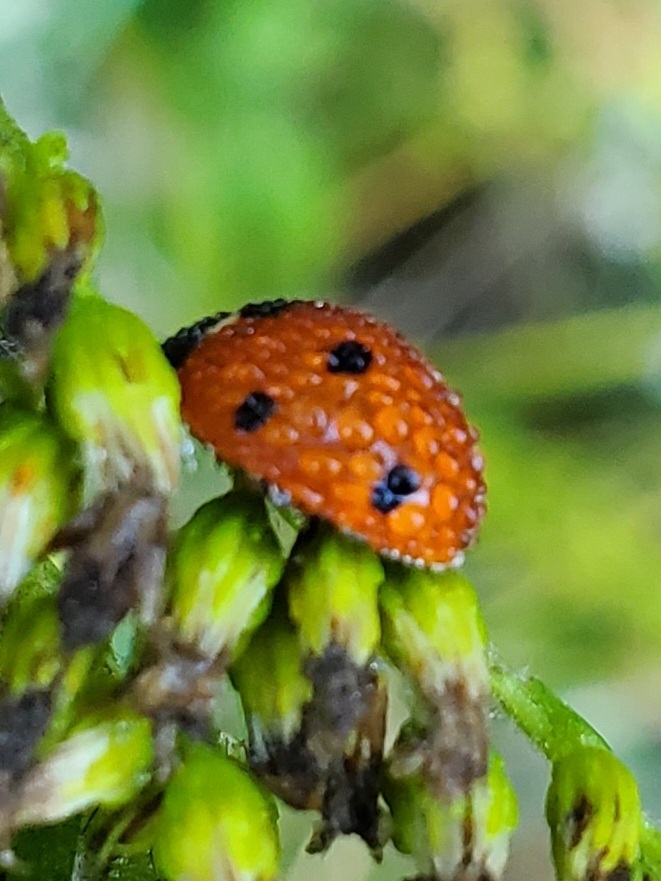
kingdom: Animalia
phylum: Arthropoda
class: Insecta
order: Coleoptera
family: Coccinellidae
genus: Coccinella
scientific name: Coccinella septempunctata
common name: Sevenspotted lady beetle
